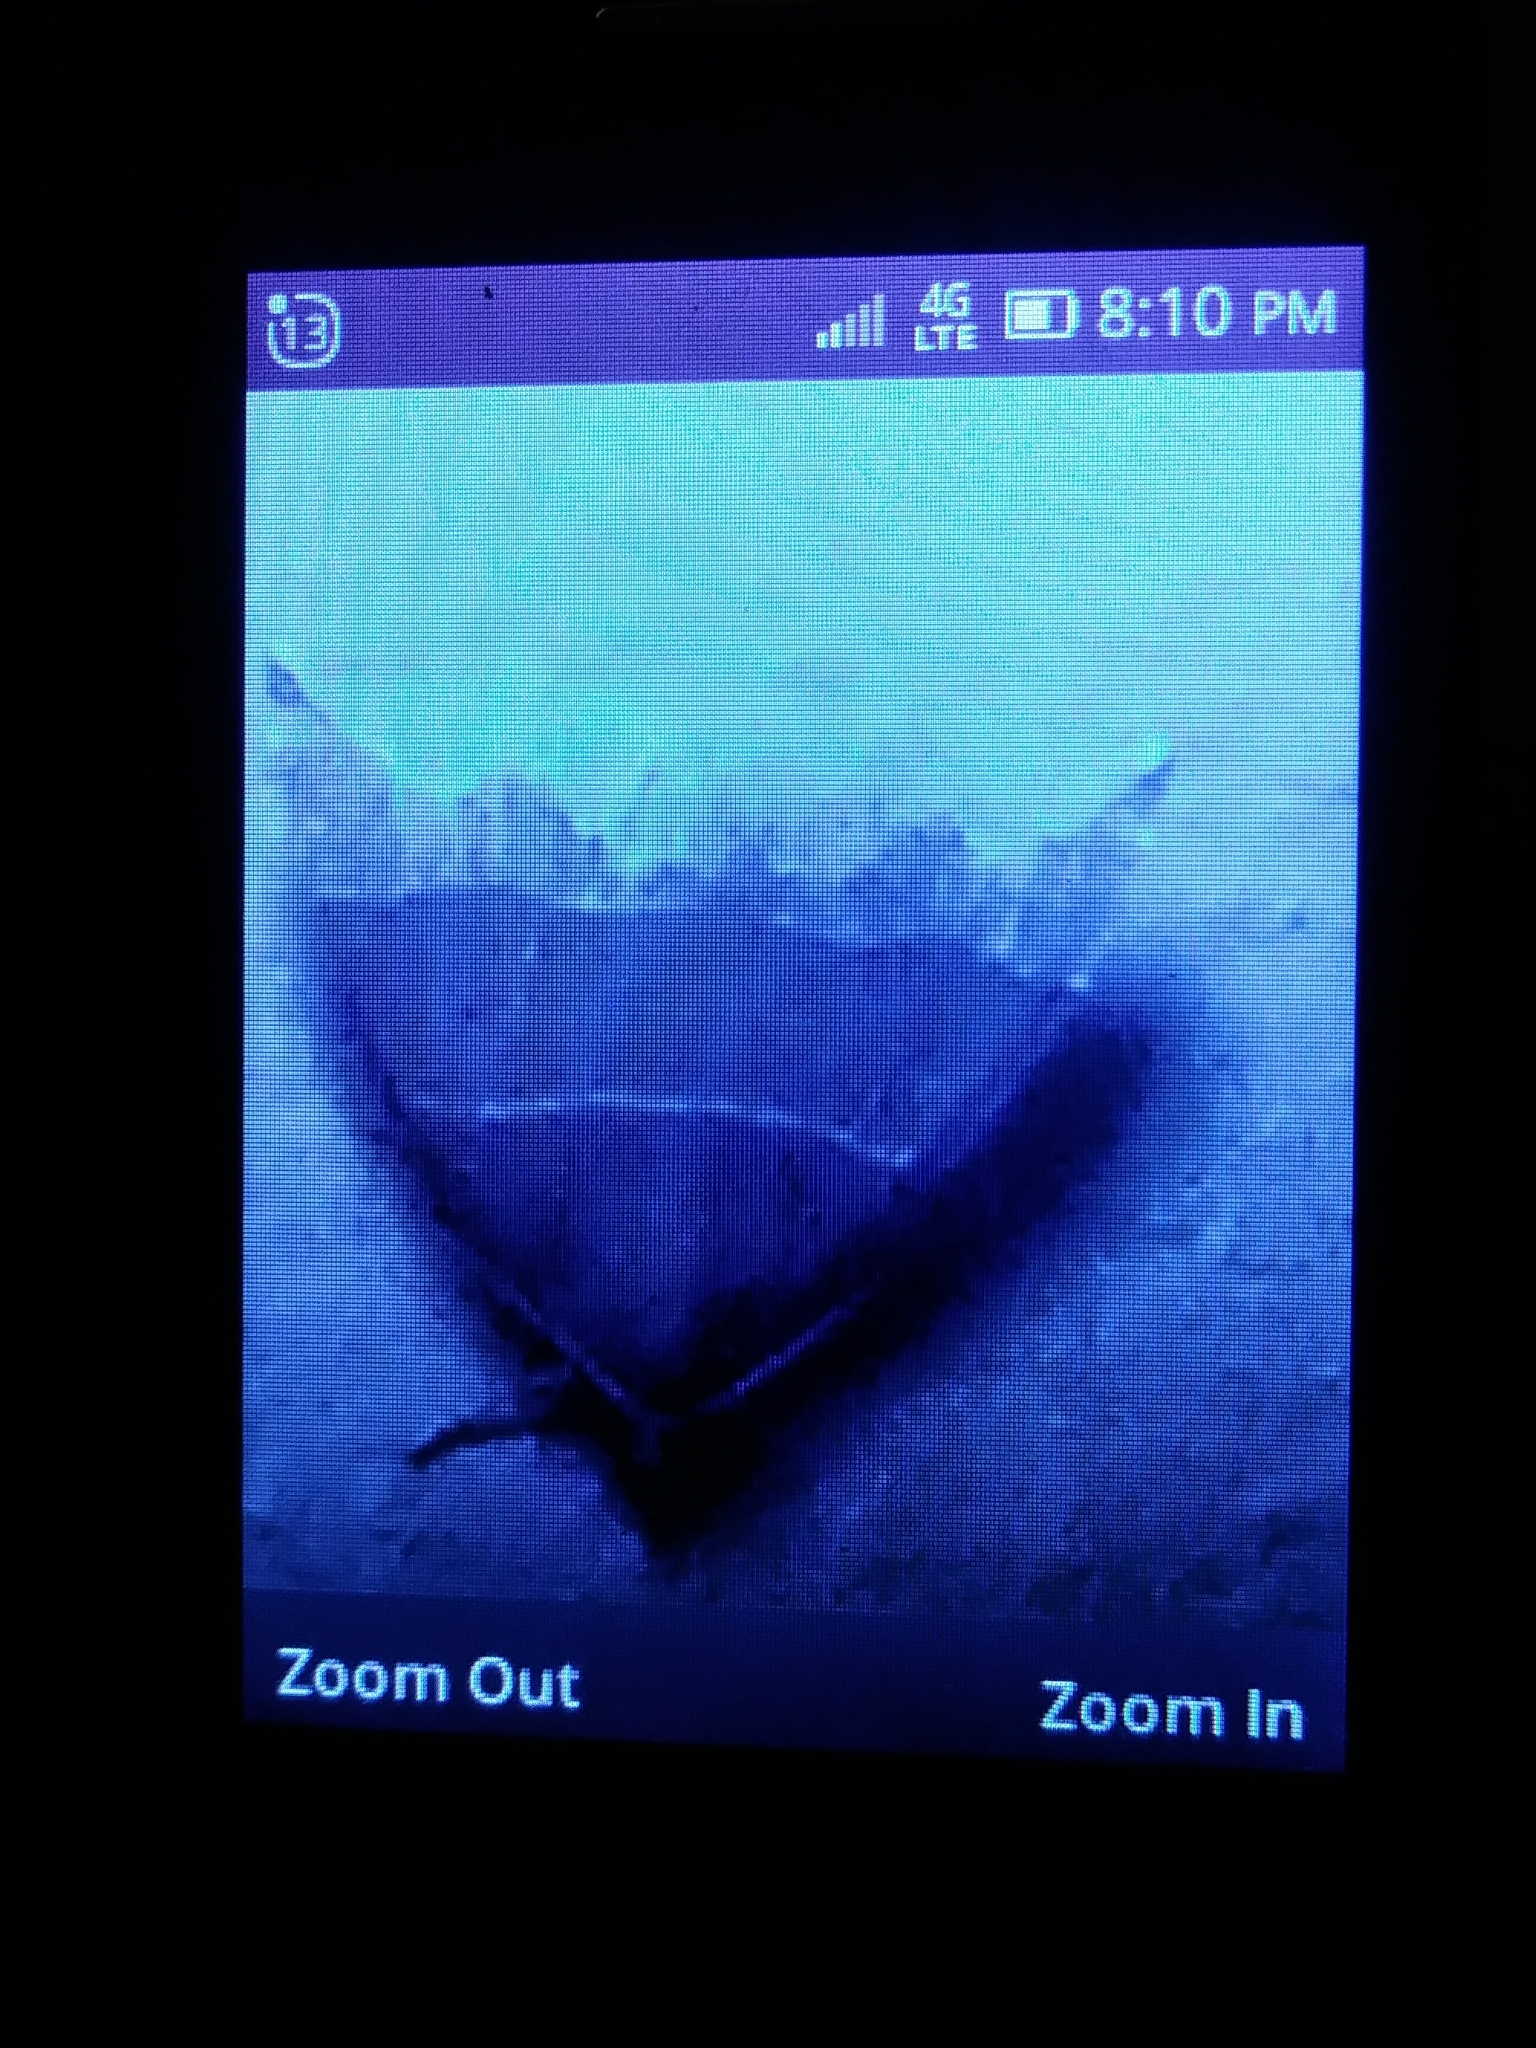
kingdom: Animalia
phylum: Arthropoda
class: Insecta
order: Lepidoptera
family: Erebidae
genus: Parallelia
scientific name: Parallelia bistriaris
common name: Maple looper moth
